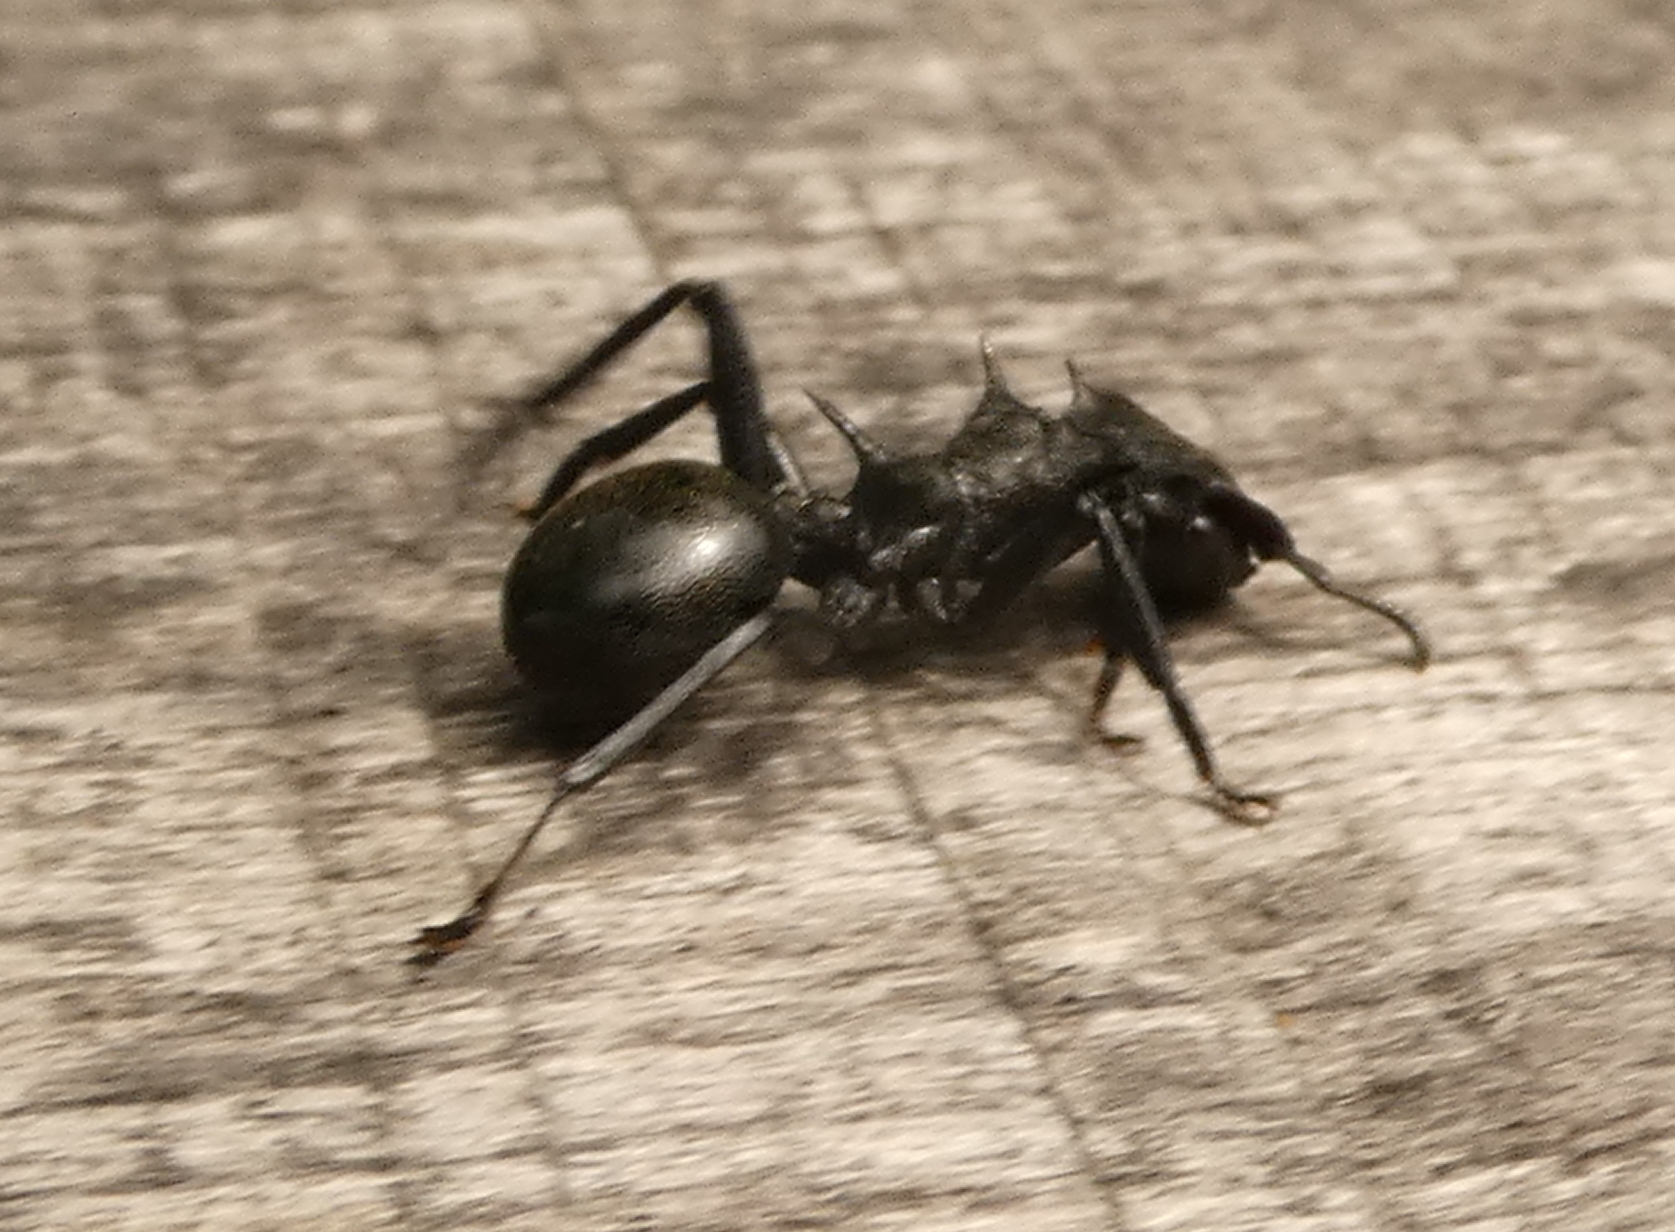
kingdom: Animalia
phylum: Arthropoda
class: Insecta
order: Hymenoptera
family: Formicidae
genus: Cephalotes
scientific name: Cephalotes atratus
